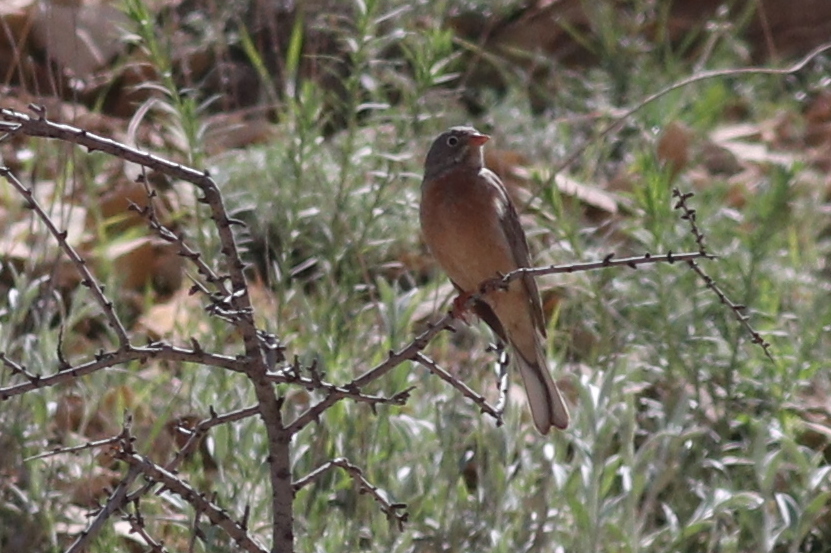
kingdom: Animalia
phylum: Chordata
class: Aves
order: Passeriformes
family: Emberizidae
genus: Emberiza
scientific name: Emberiza buchanani
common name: Grey-necked bunting
